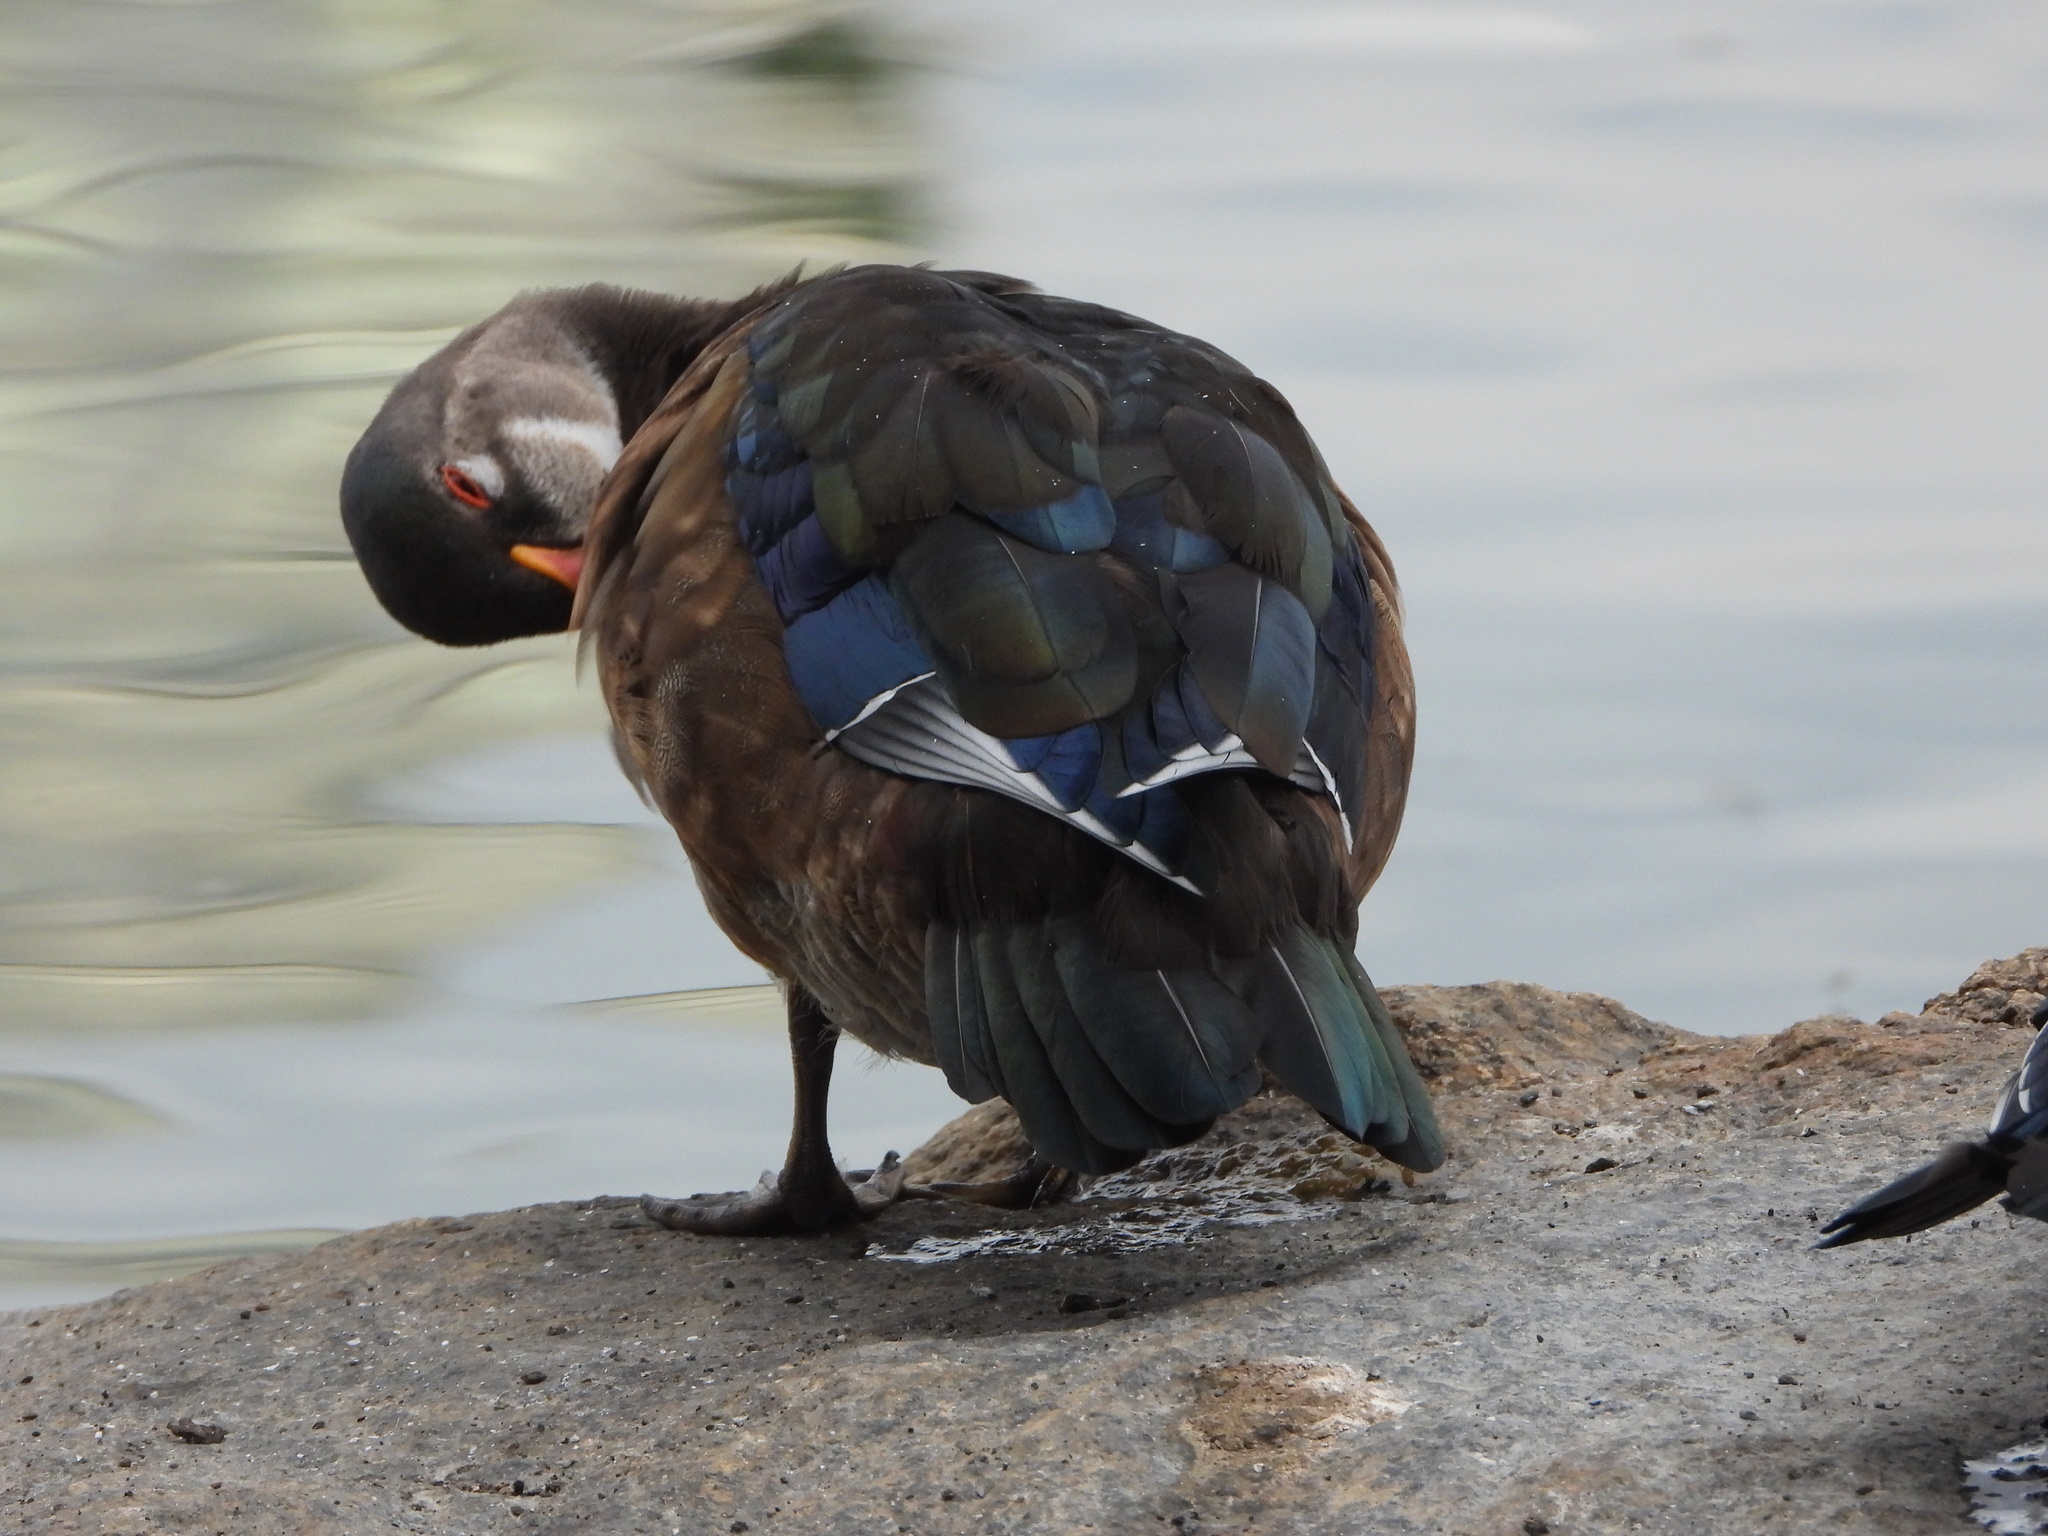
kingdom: Animalia
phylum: Chordata
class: Aves
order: Anseriformes
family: Anatidae
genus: Aix
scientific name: Aix sponsa
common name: Wood duck
